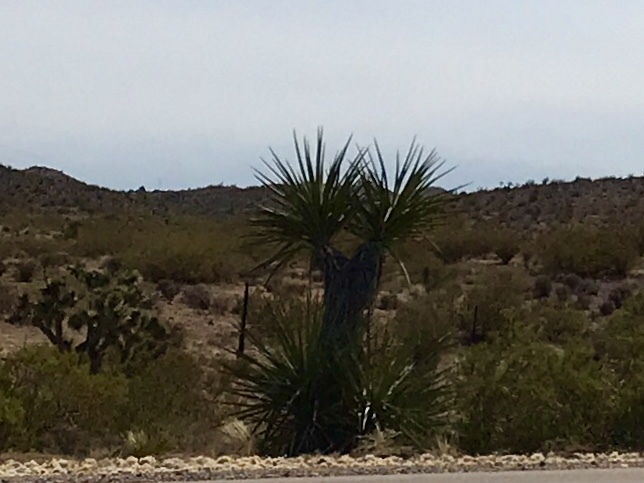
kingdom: Plantae
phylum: Tracheophyta
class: Liliopsida
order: Asparagales
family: Asparagaceae
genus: Yucca
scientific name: Yucca schidigera
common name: Mojave yucca
